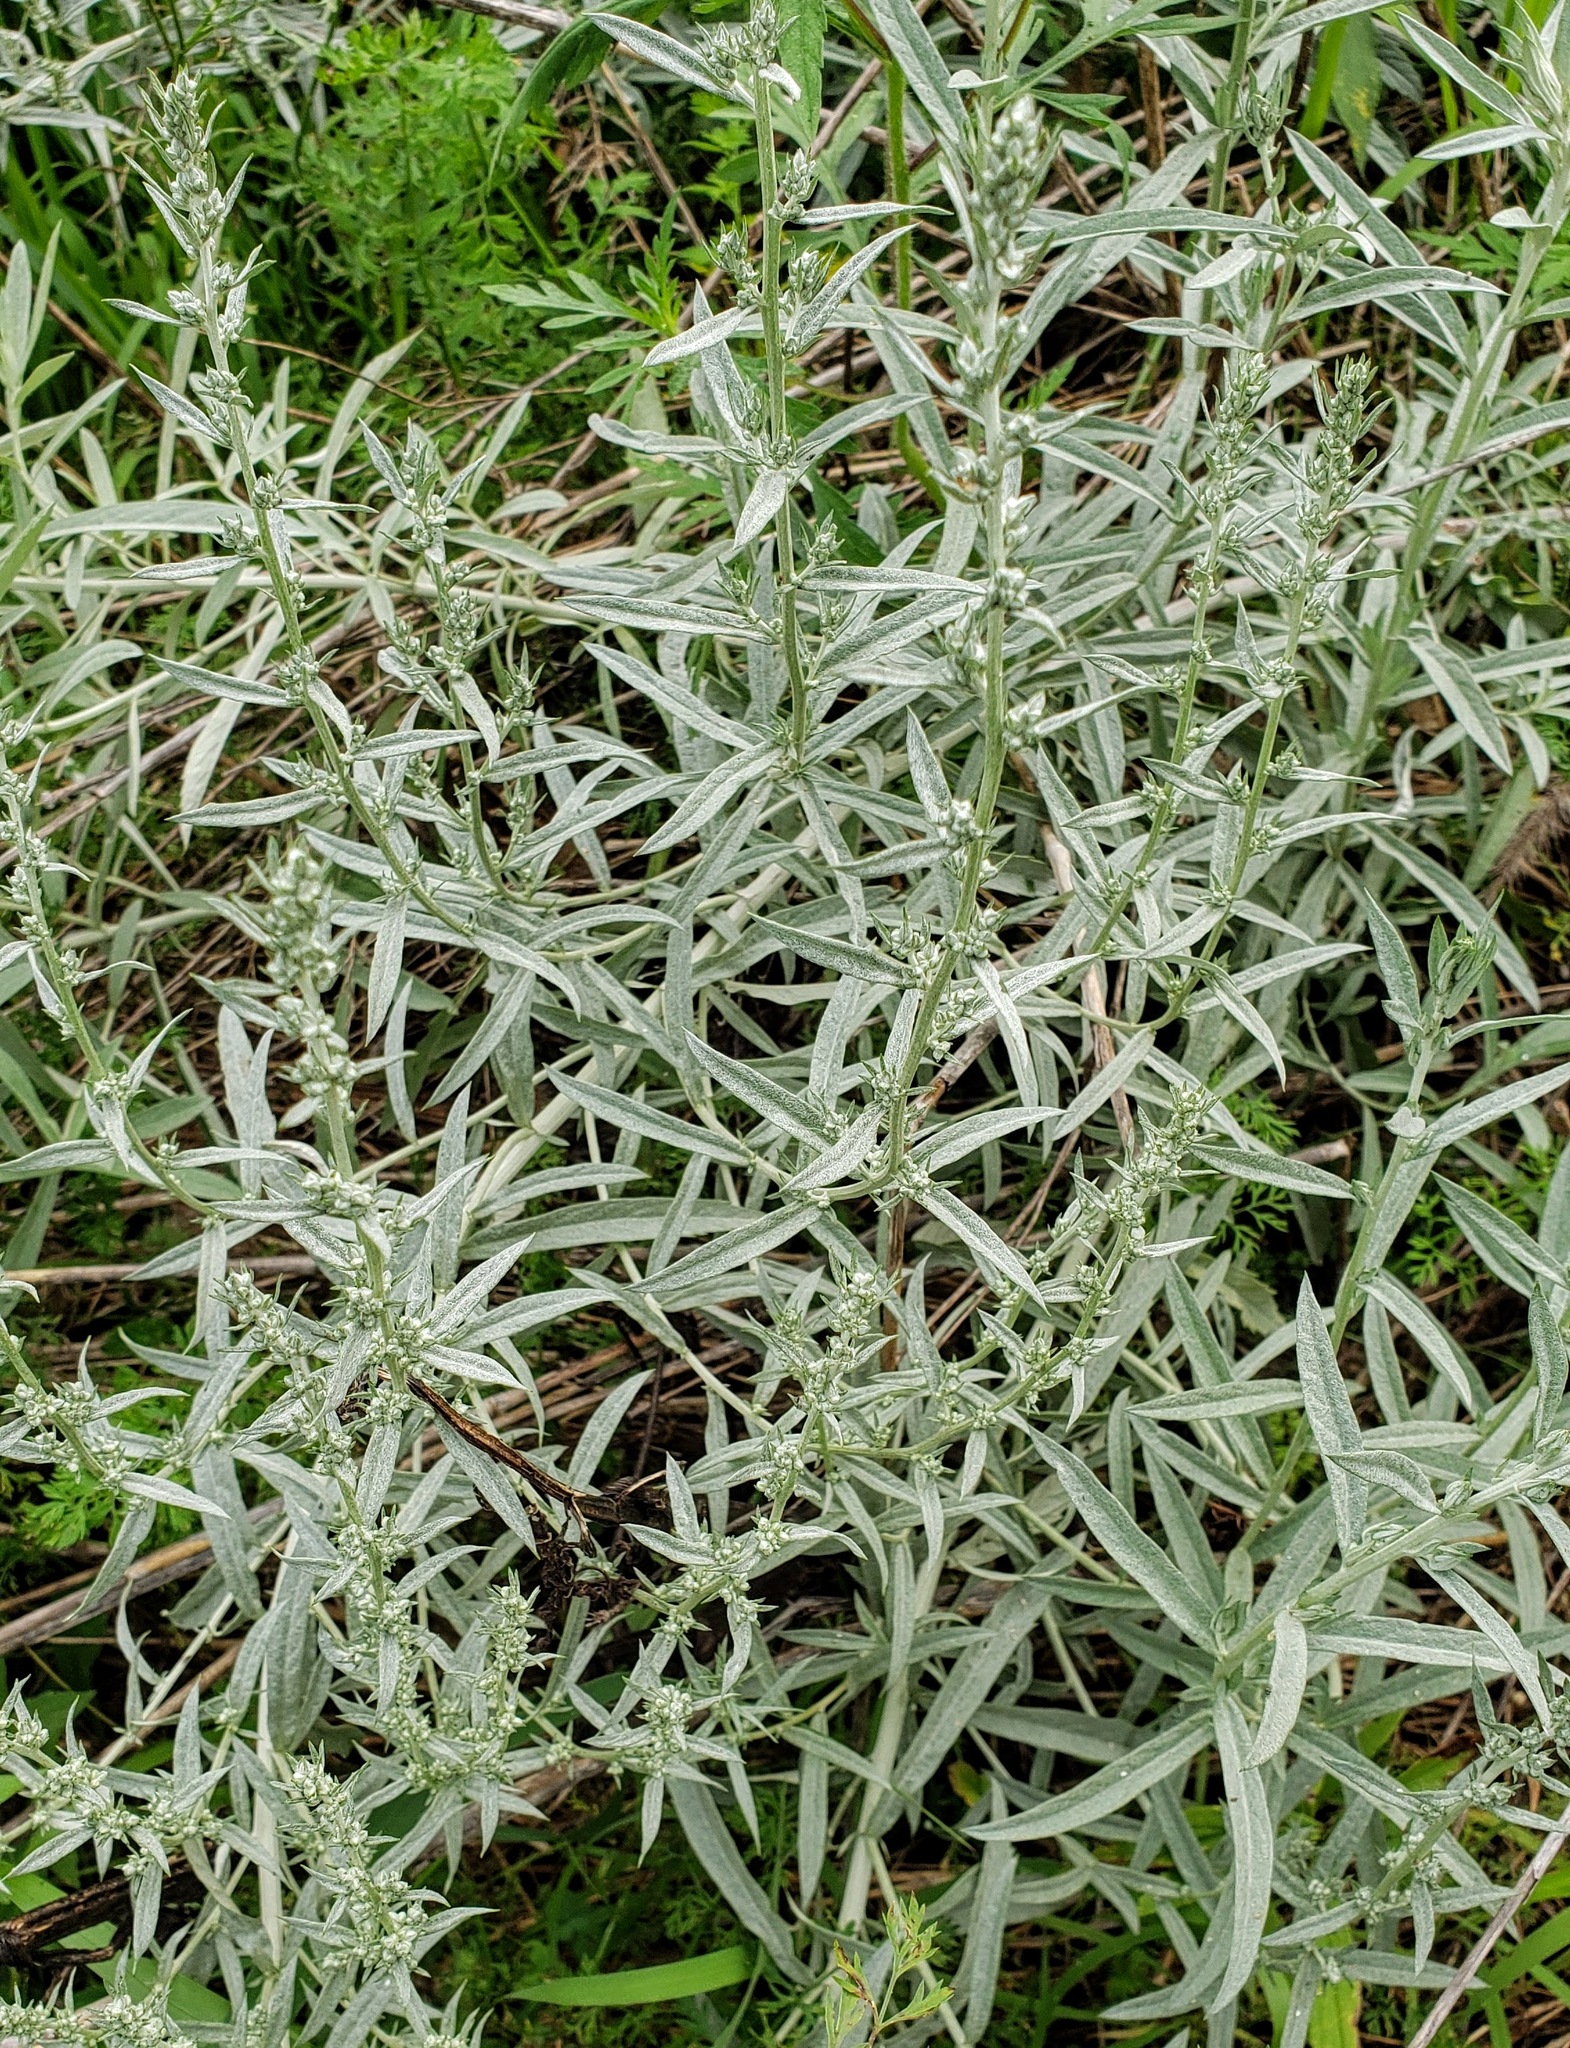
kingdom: Plantae
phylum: Tracheophyta
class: Magnoliopsida
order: Asterales
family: Asteraceae
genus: Artemisia
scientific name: Artemisia ludoviciana
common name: Western mugwort
